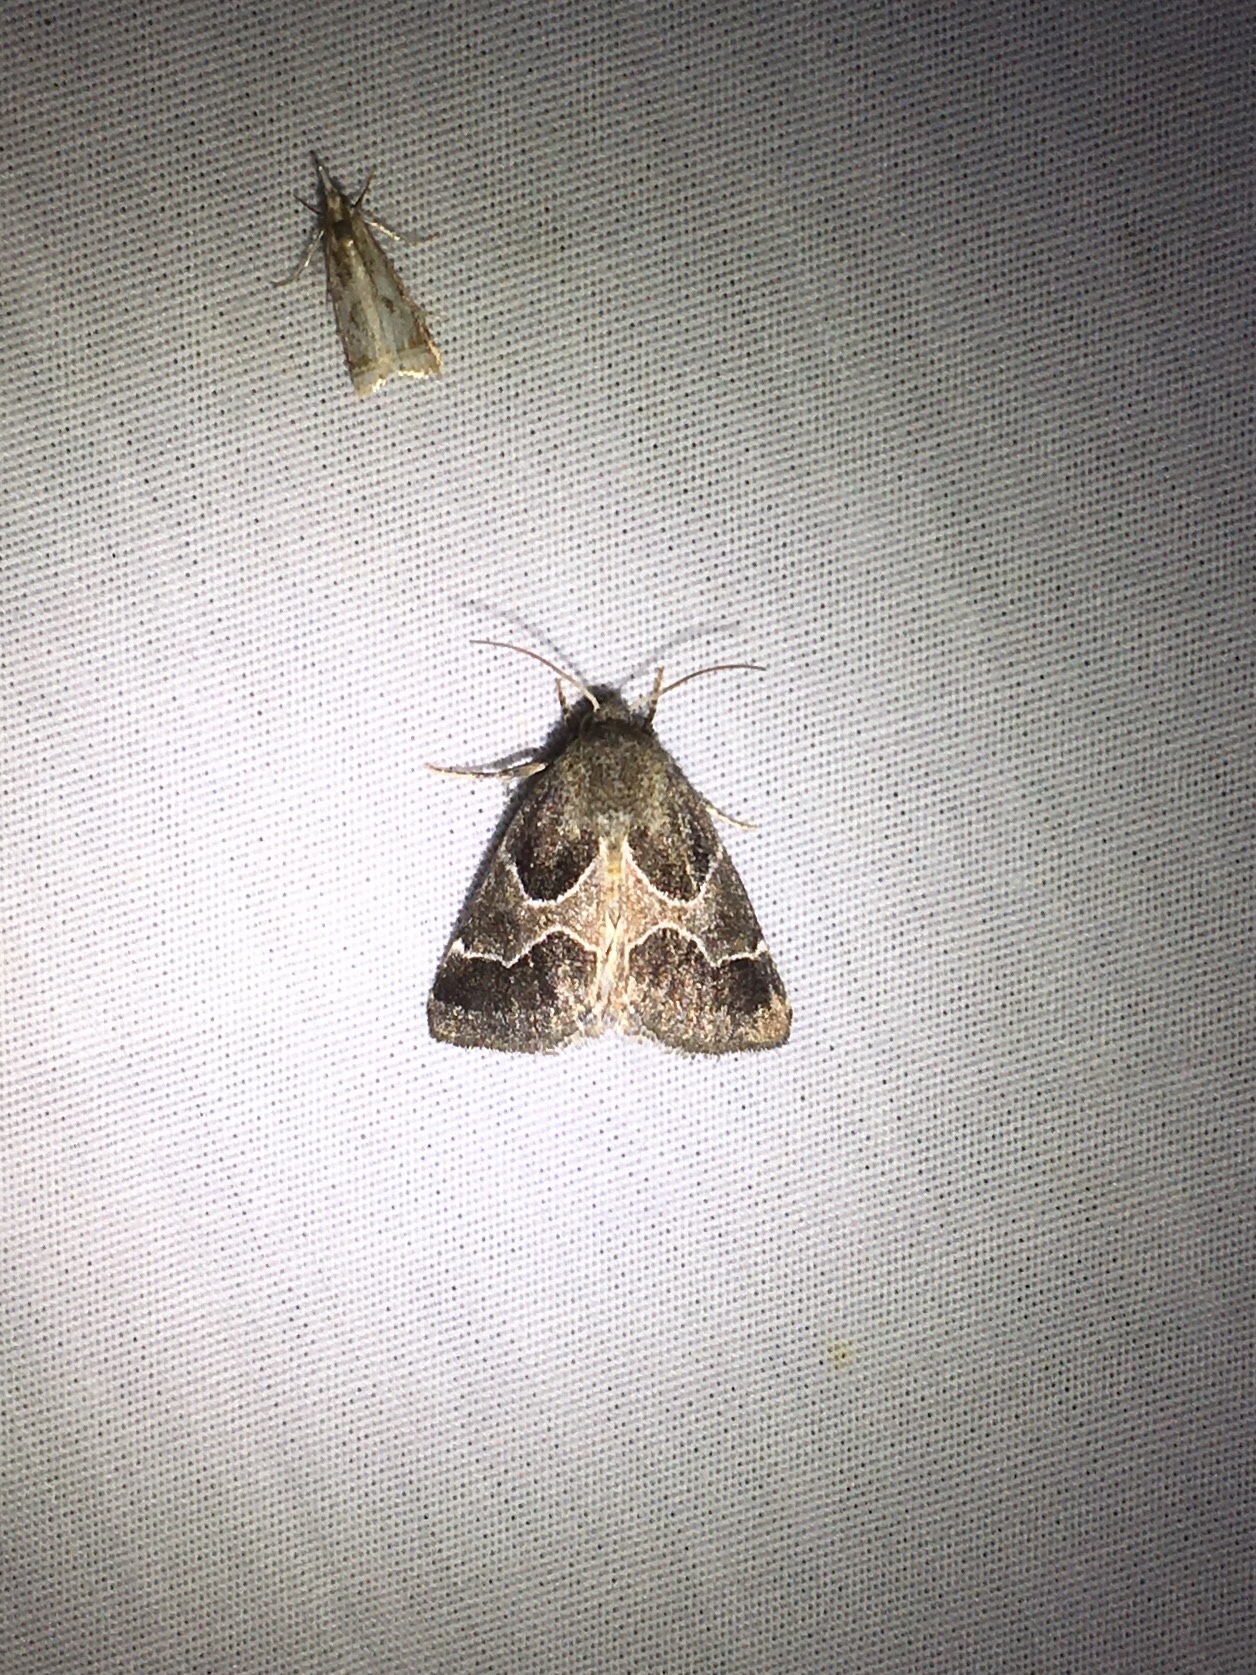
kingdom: Animalia
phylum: Arthropoda
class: Insecta
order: Lepidoptera
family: Noctuidae
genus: Schinia
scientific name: Schinia rivulosa
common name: Scarce meal-moth
